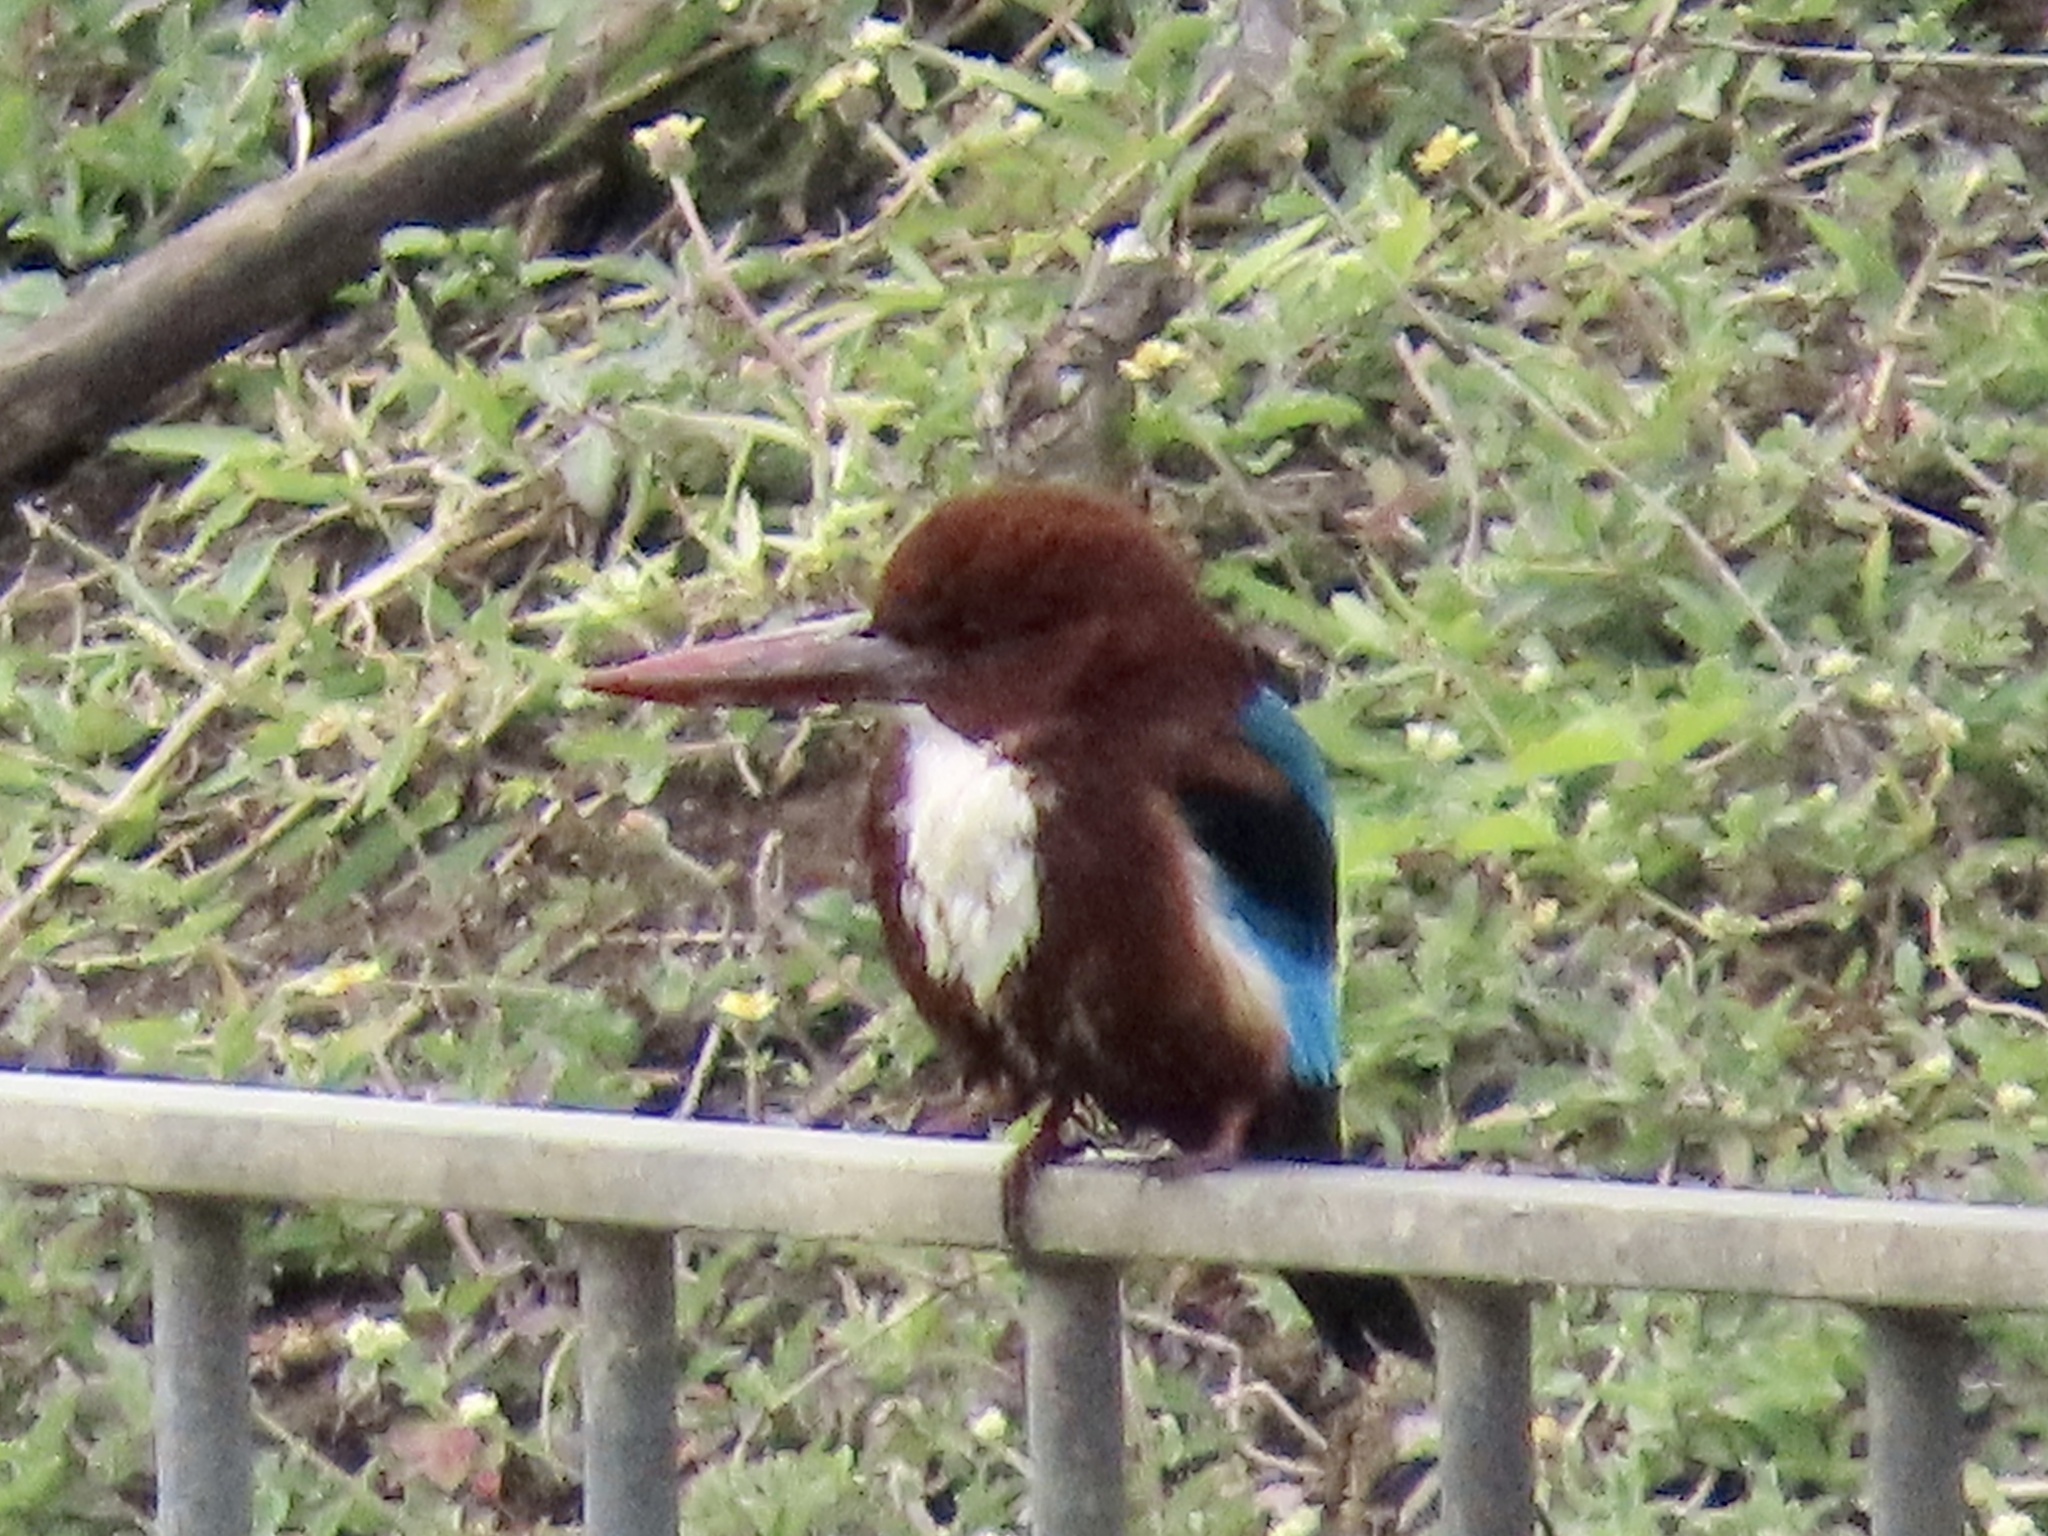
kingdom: Animalia
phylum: Chordata
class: Aves
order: Coraciiformes
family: Alcedinidae
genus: Halcyon
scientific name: Halcyon smyrnensis
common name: White-throated kingfisher
